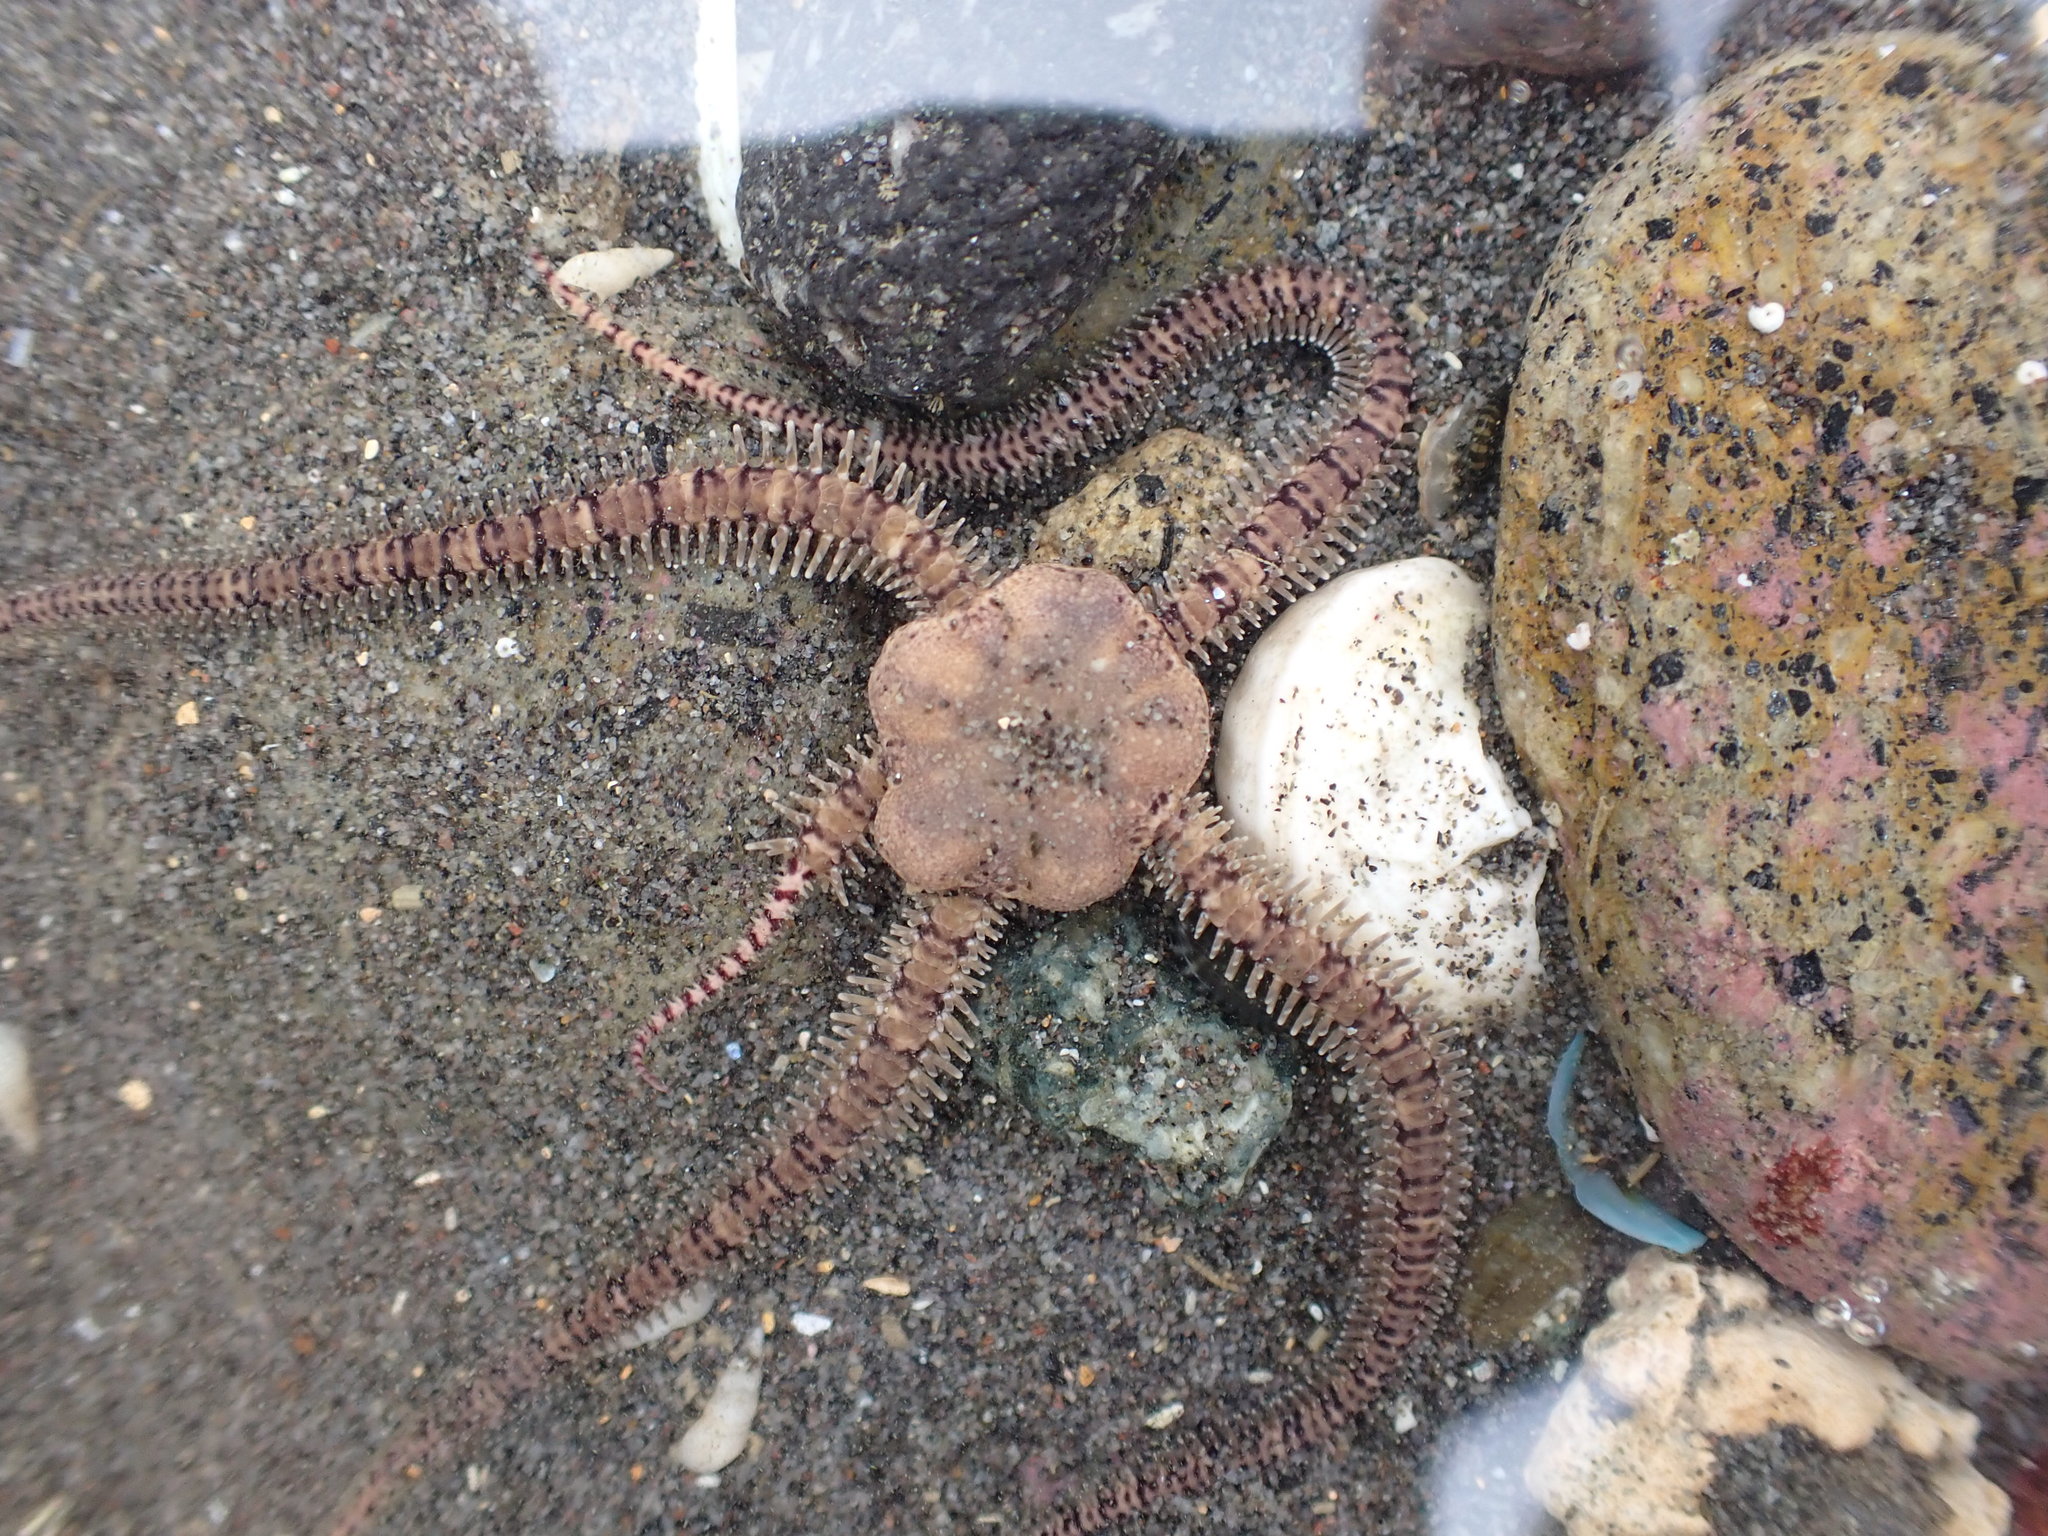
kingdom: Animalia
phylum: Echinodermata
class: Ophiuroidea
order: Amphilepidida
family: Ophionereididae
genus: Ophionereis
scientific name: Ophionereis fasciata
